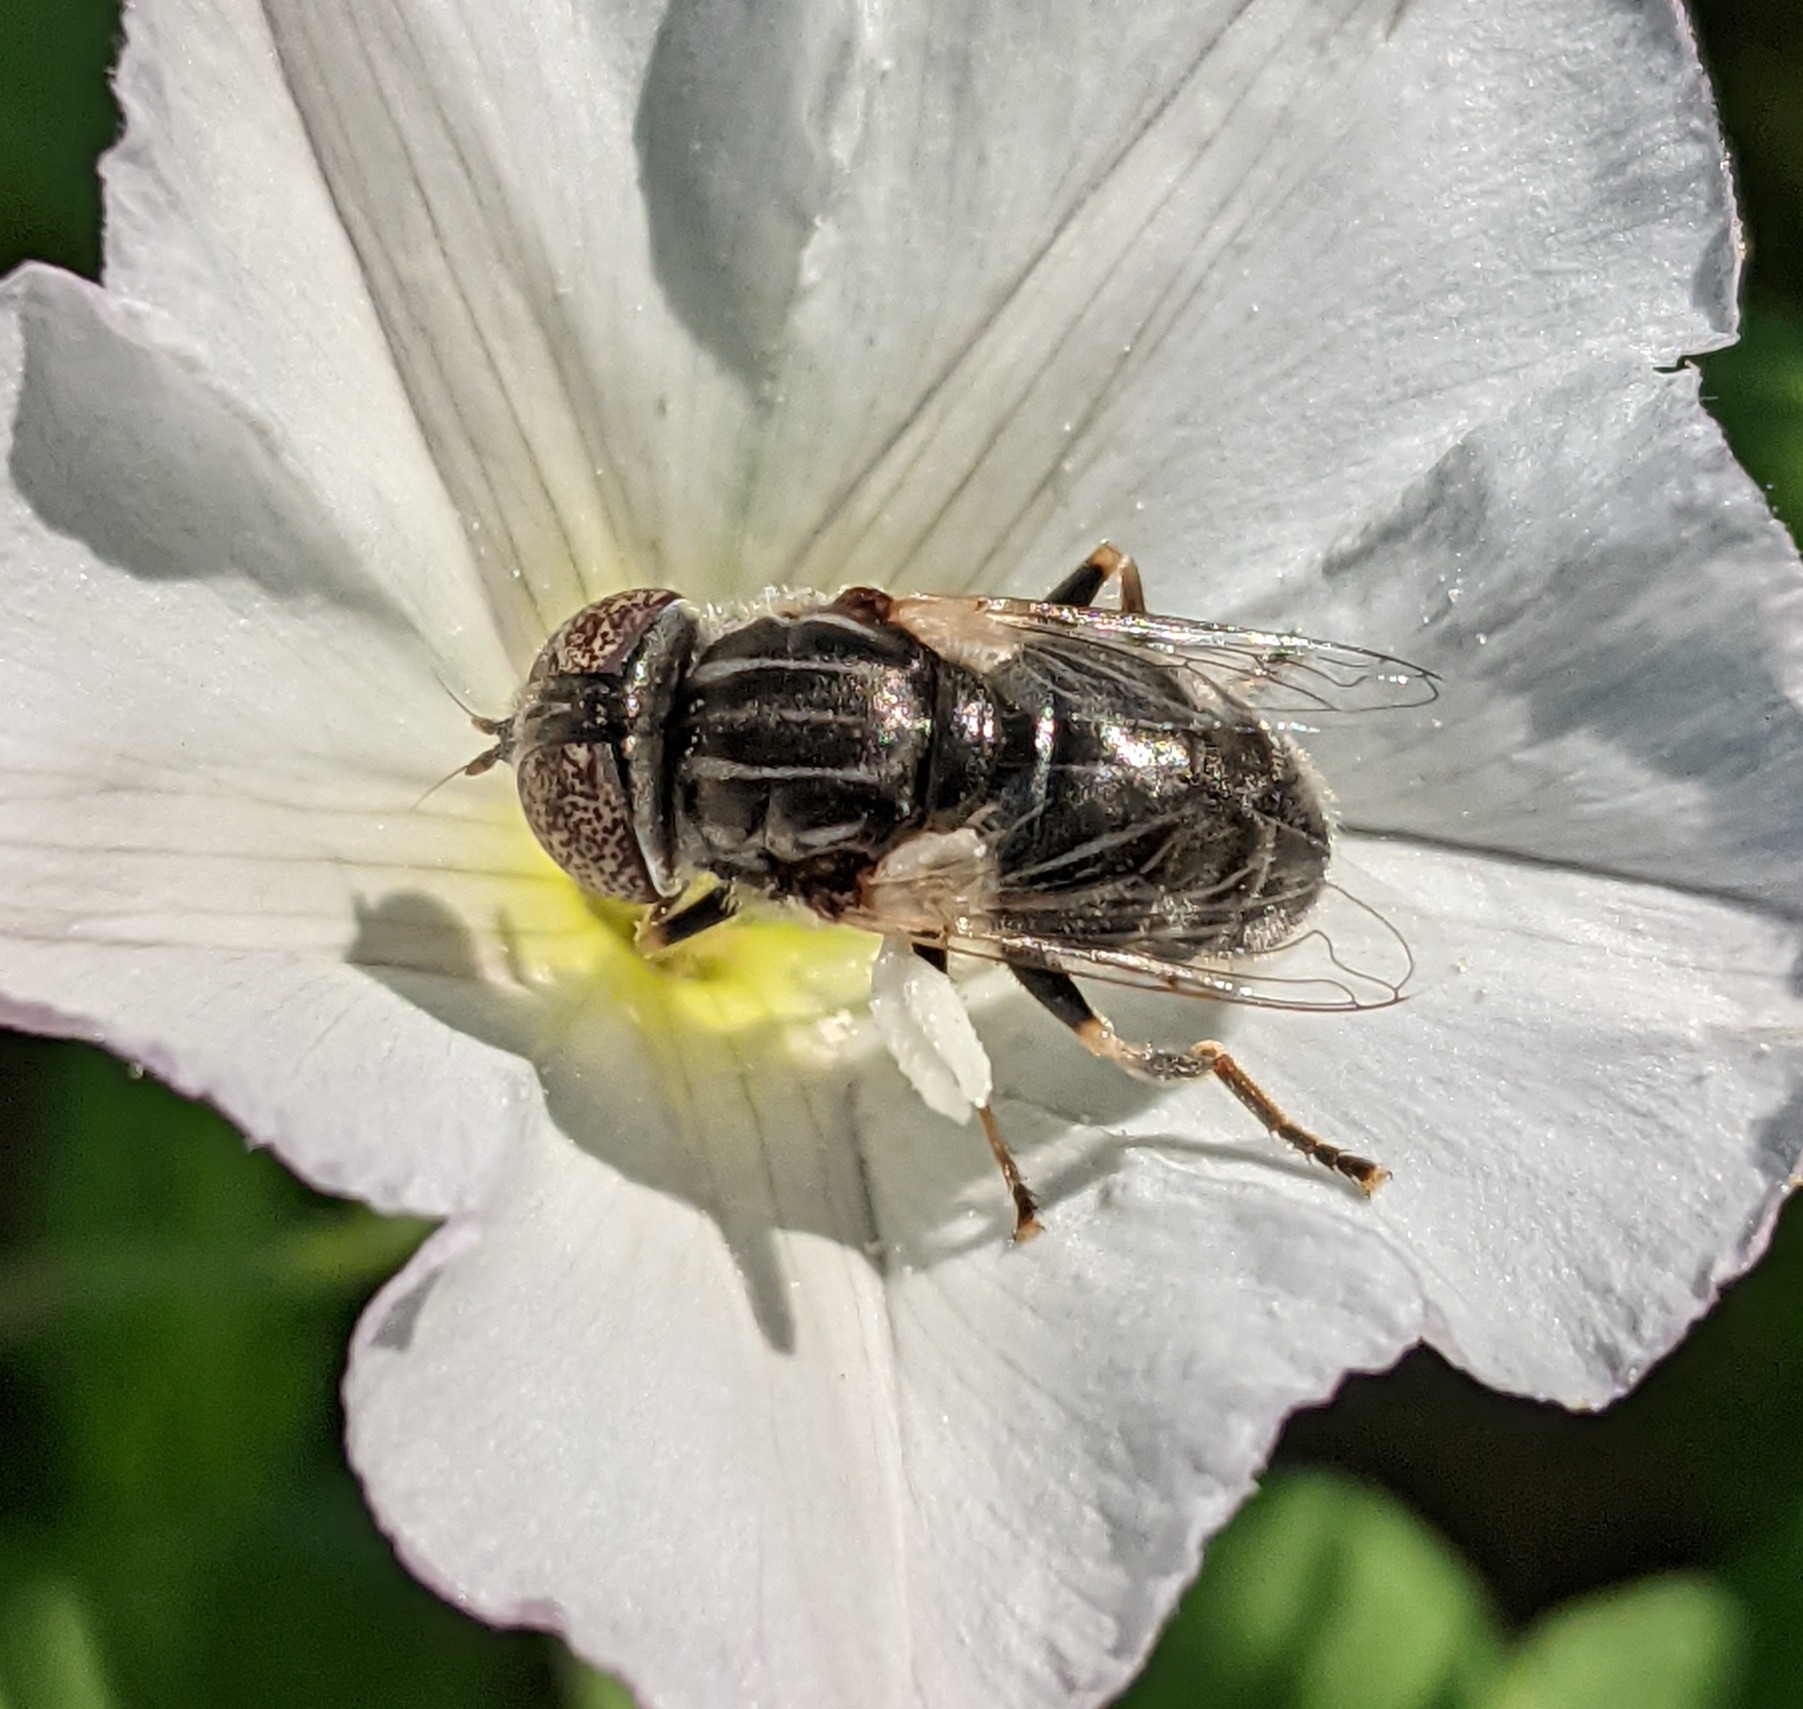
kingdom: Animalia
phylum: Arthropoda
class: Insecta
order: Diptera
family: Syrphidae
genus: Eristalinus
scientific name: Eristalinus aeneus
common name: Syrphid fly
